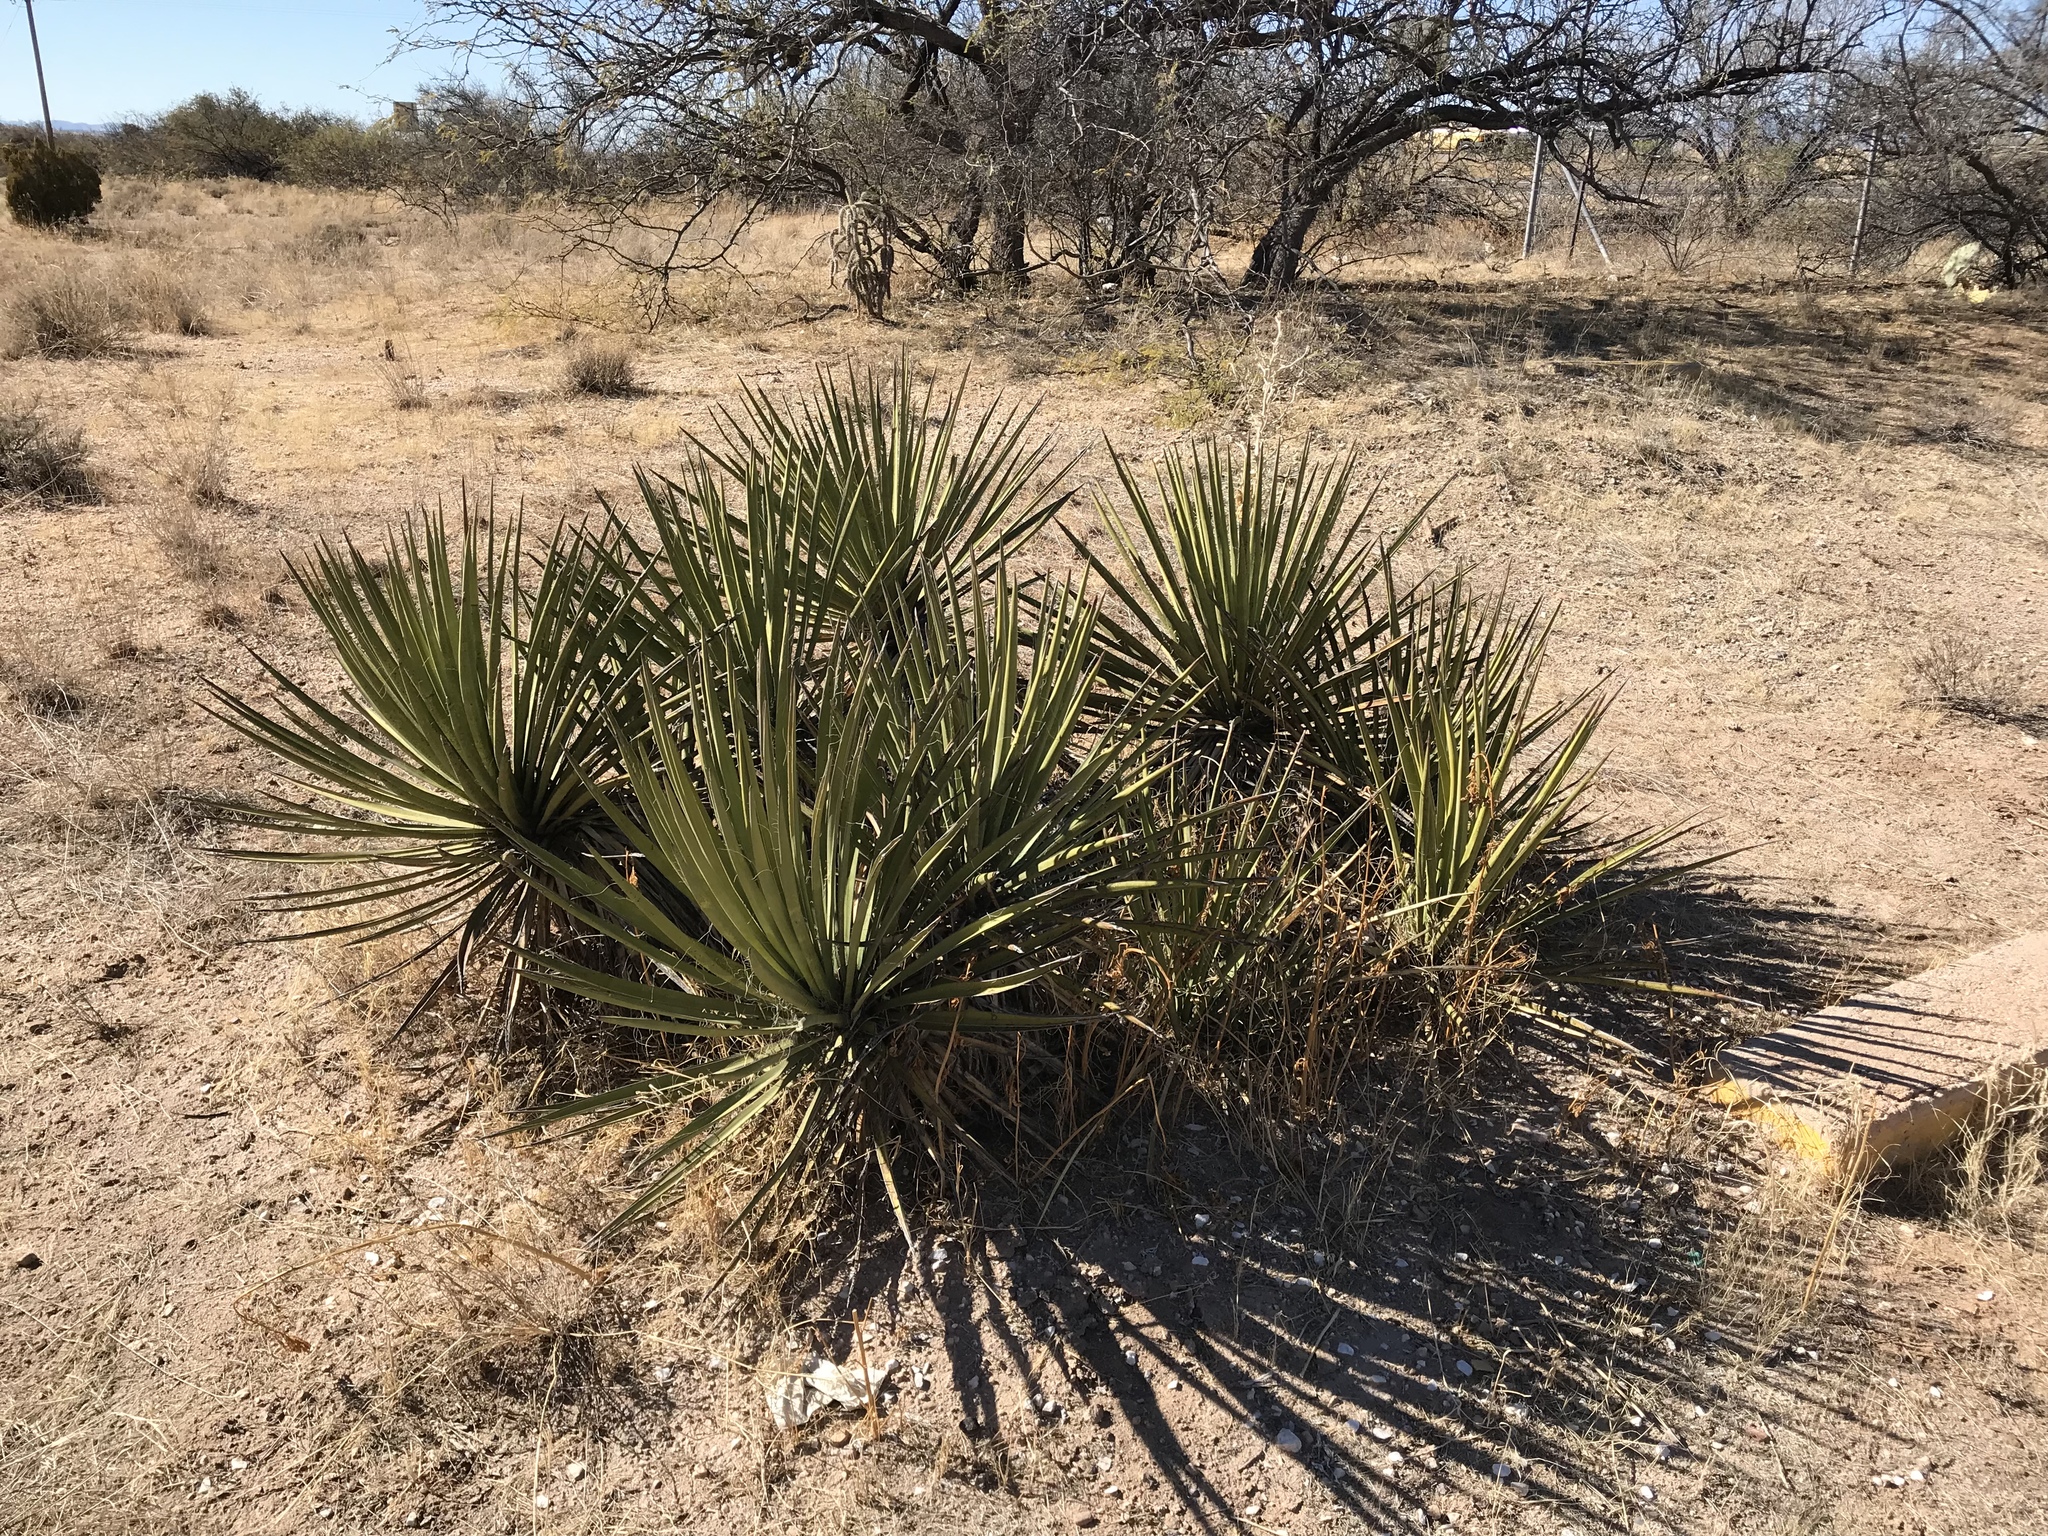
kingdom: Plantae
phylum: Tracheophyta
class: Liliopsida
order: Asparagales
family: Asparagaceae
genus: Yucca
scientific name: Yucca baccata
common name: Banana yucca
